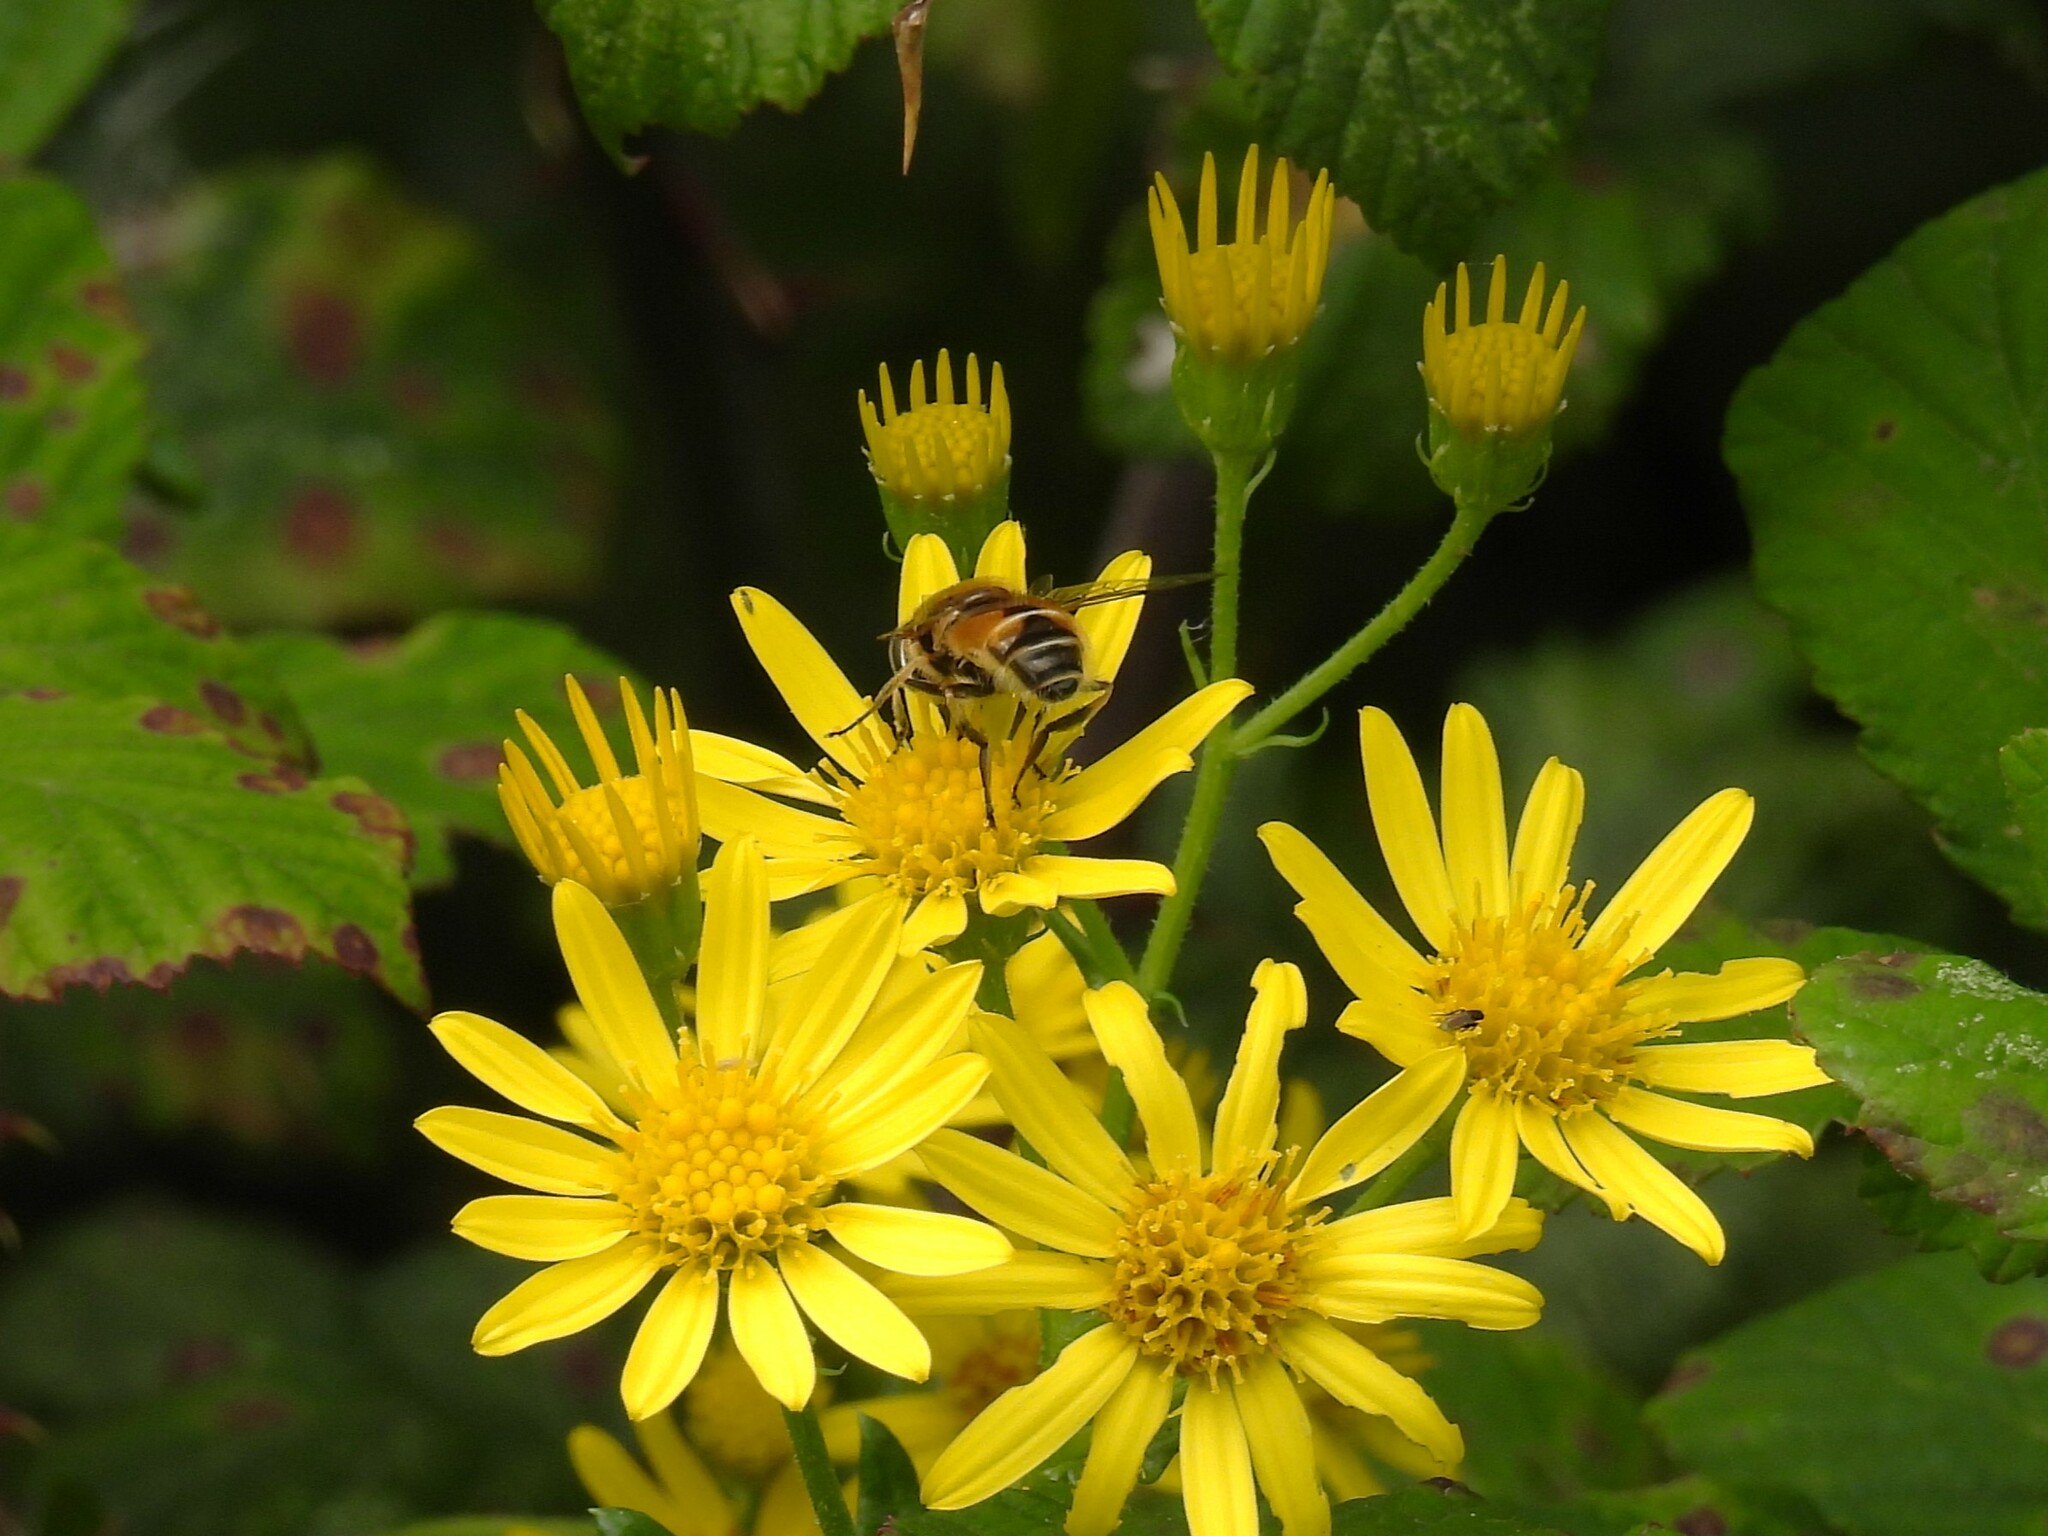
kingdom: Animalia
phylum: Arthropoda
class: Insecta
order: Diptera
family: Syrphidae
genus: Eoseristalis
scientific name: Eoseristalis
